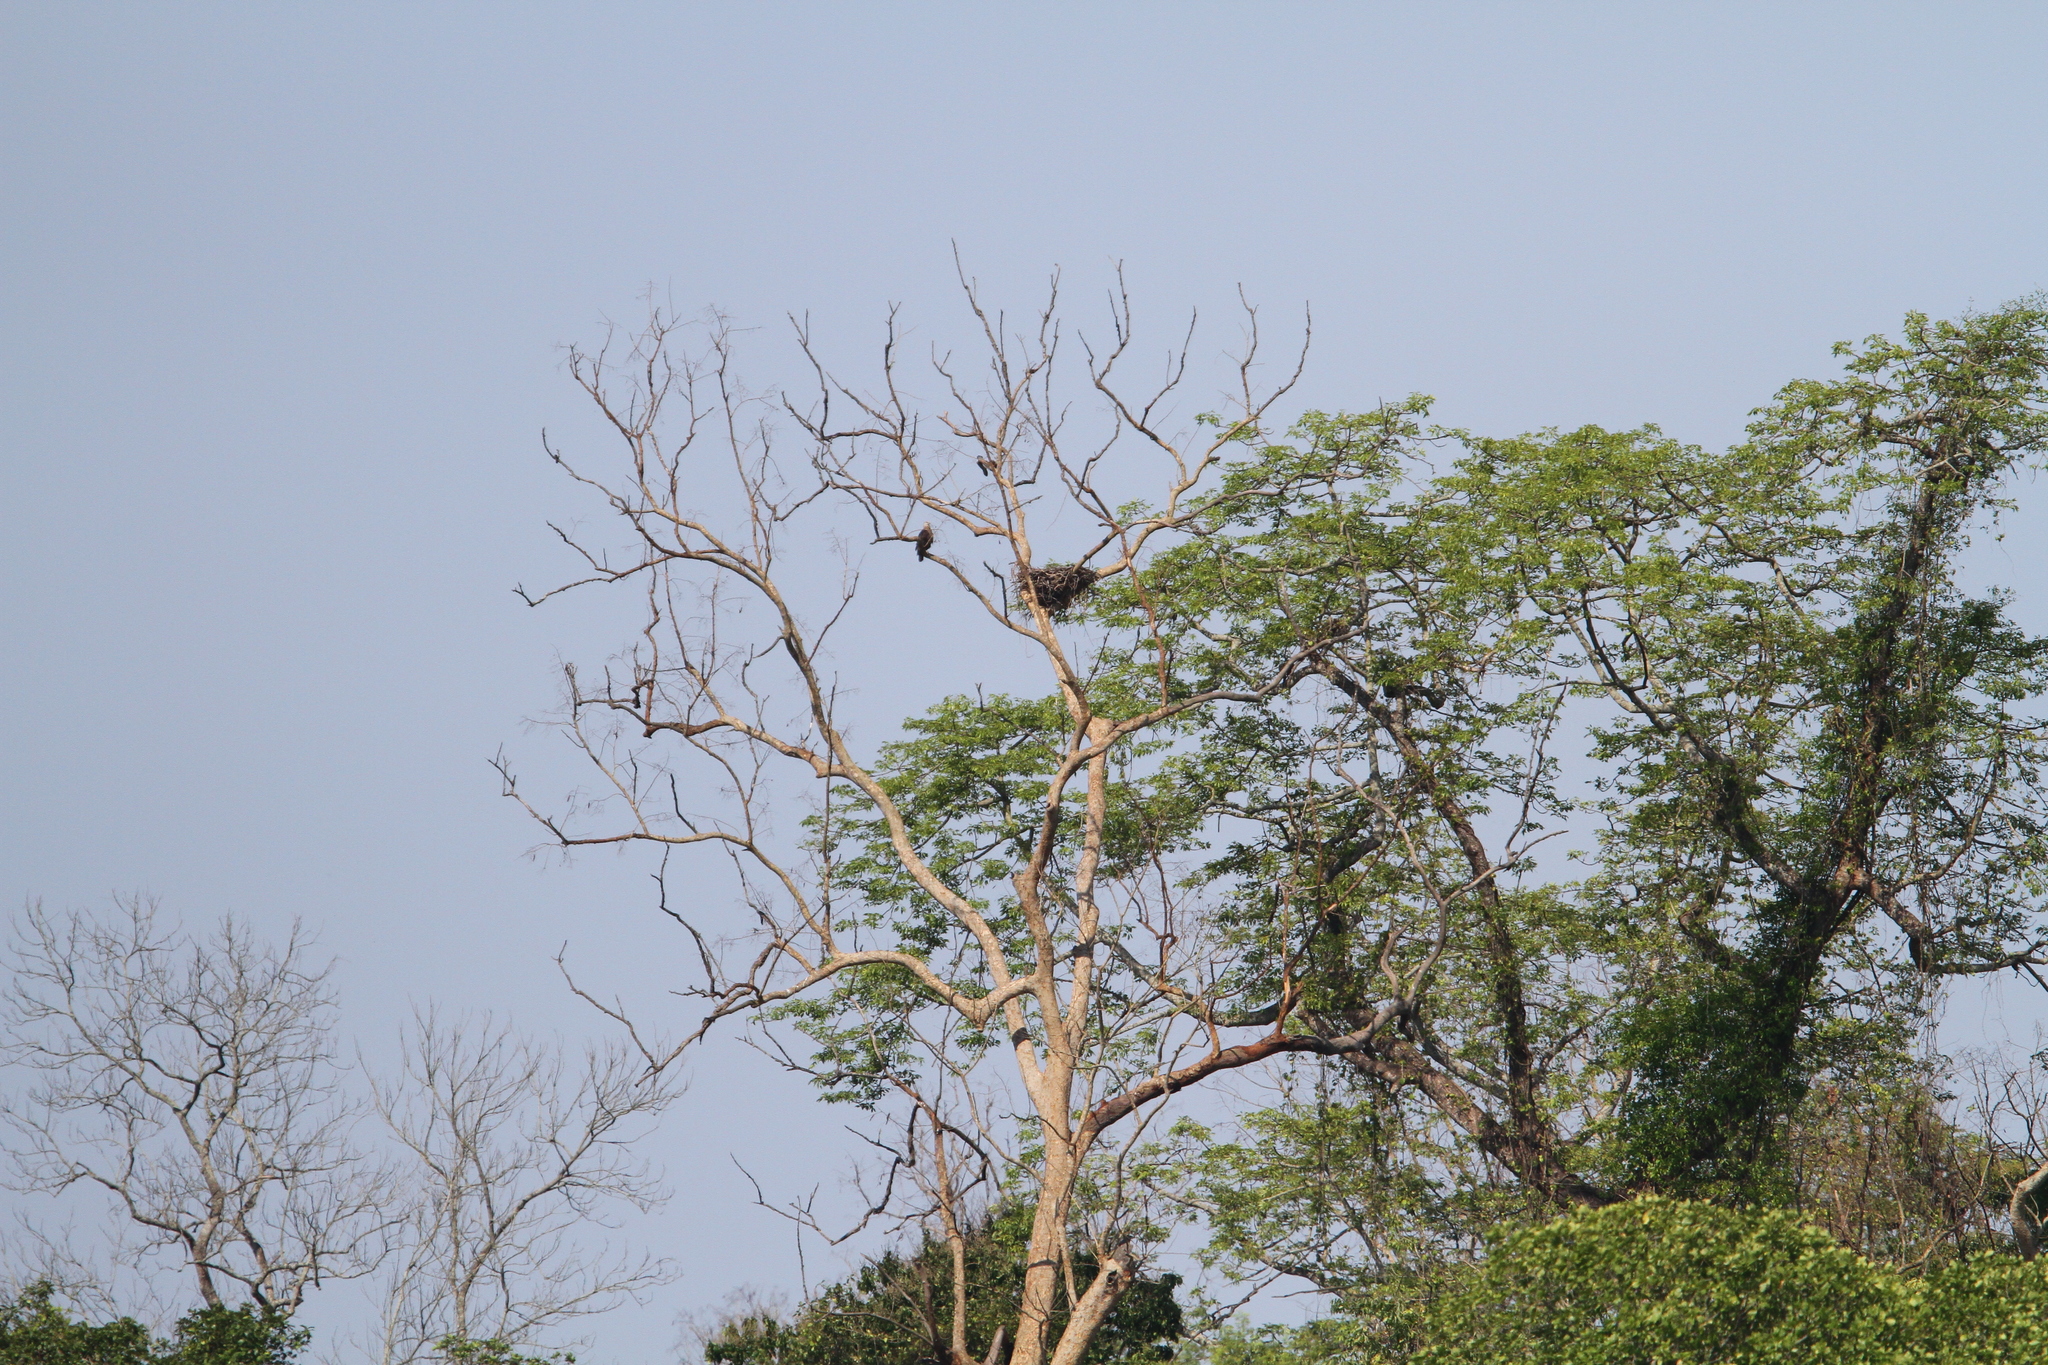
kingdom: Animalia
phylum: Chordata
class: Aves
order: Accipitriformes
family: Accipitridae
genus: Haliaeetus
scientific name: Haliaeetus leucoryphus
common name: Pallas's fish eagle
